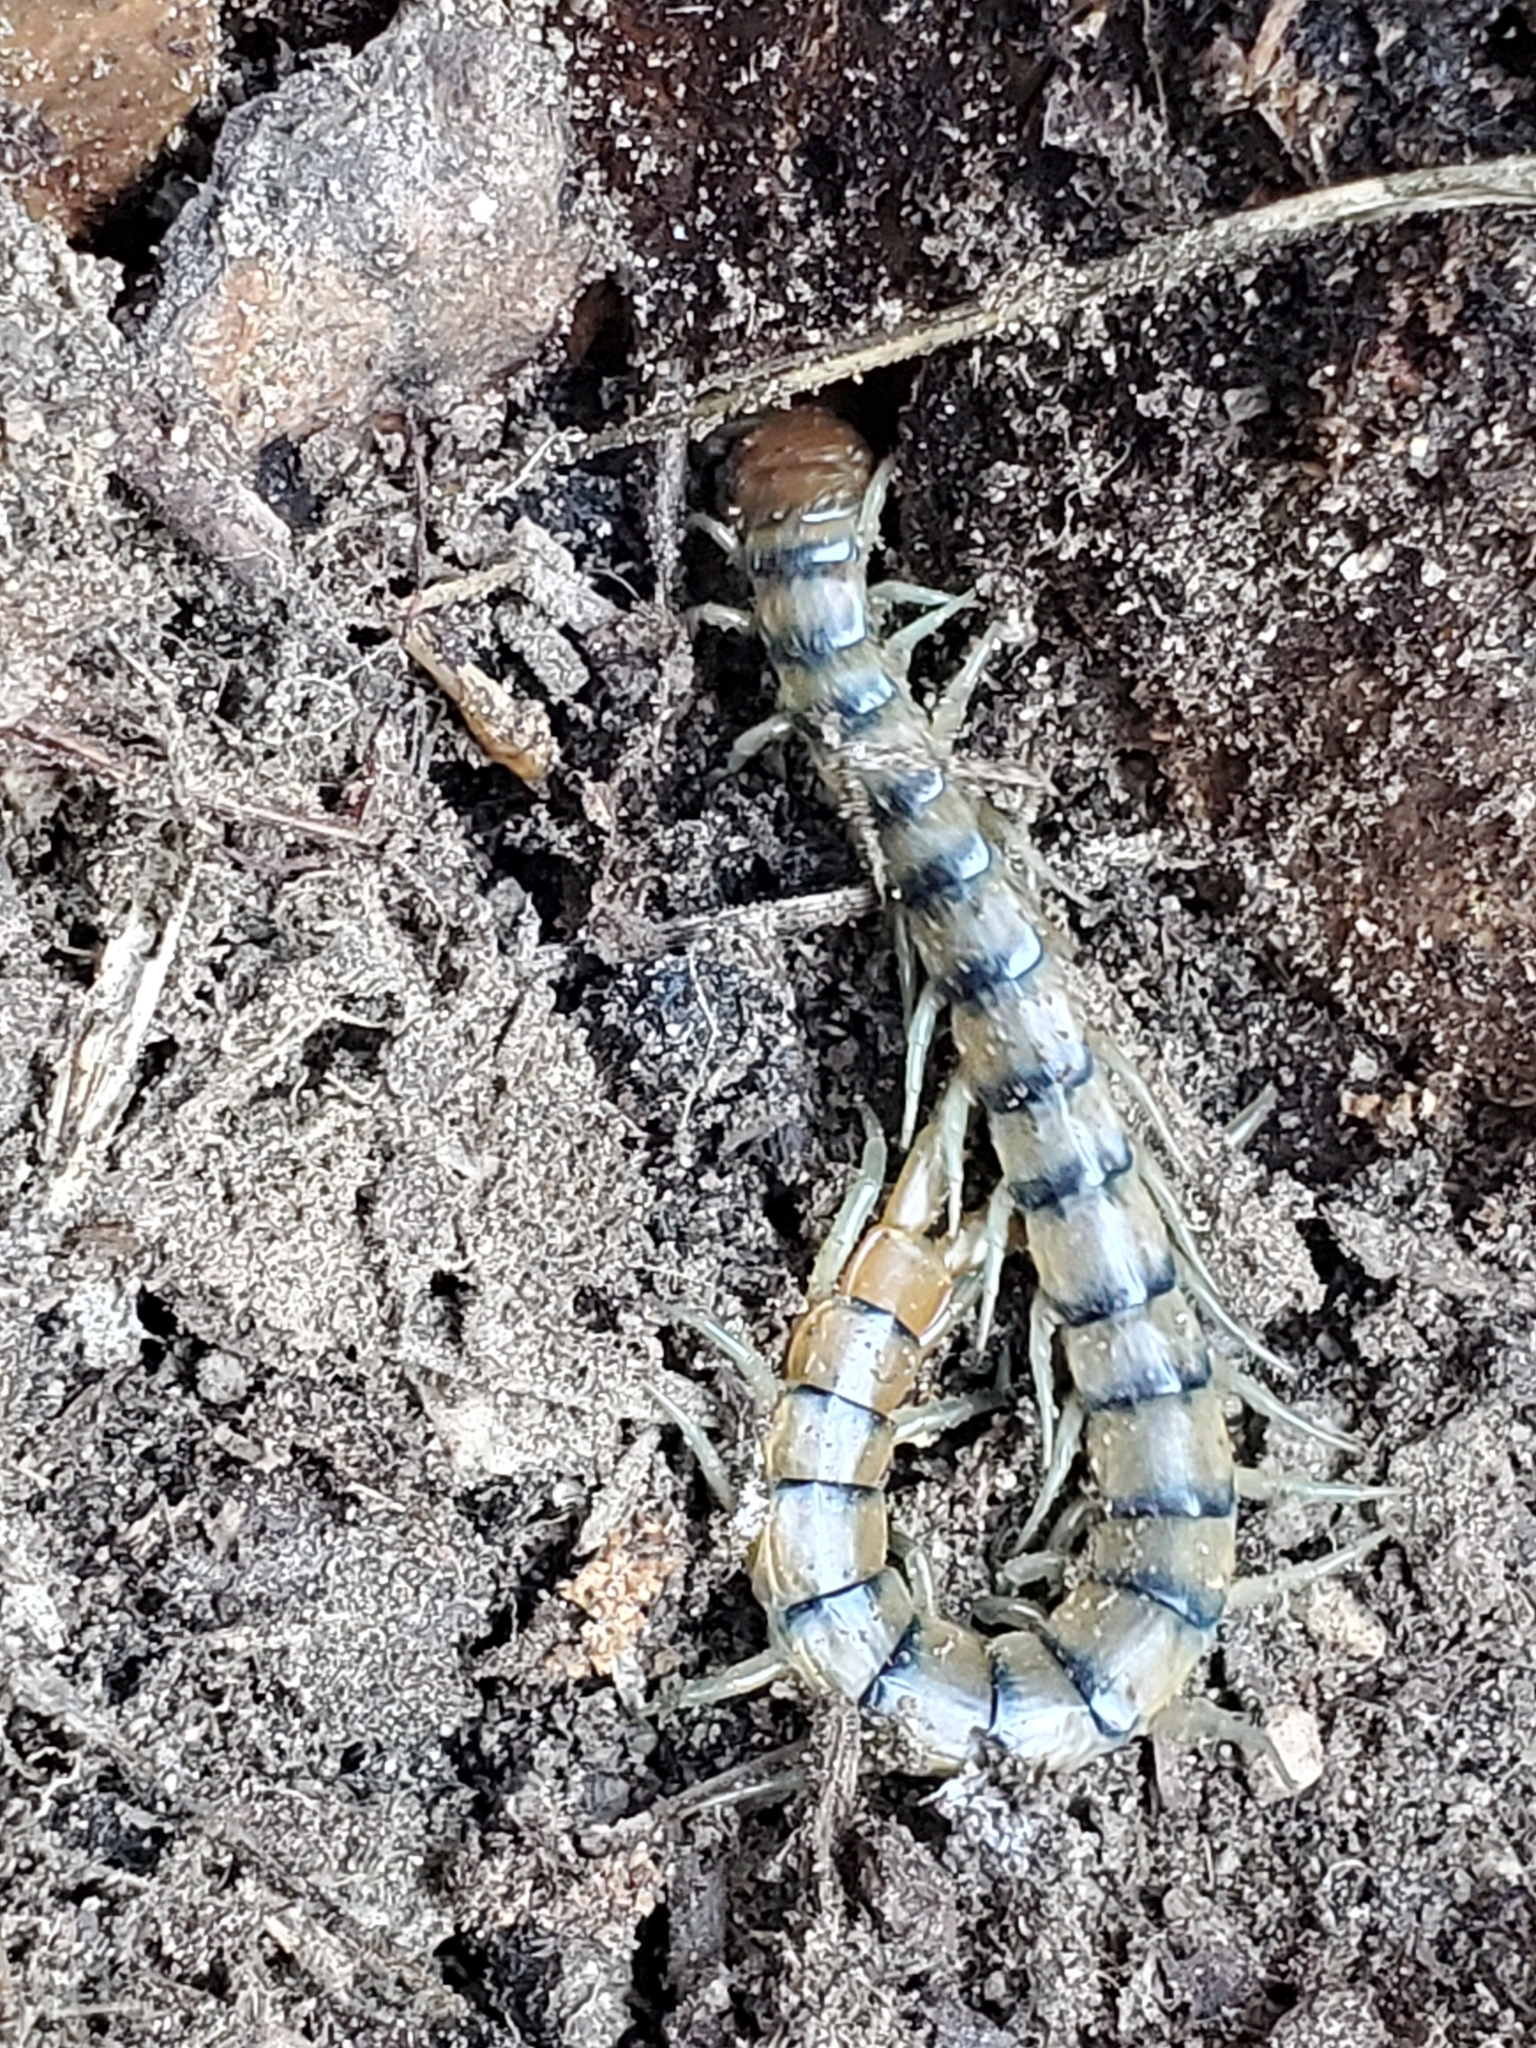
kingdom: Animalia
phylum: Arthropoda
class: Chilopoda
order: Scolopendromorpha
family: Scolopendridae
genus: Scolopendra
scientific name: Scolopendra polymorpha
